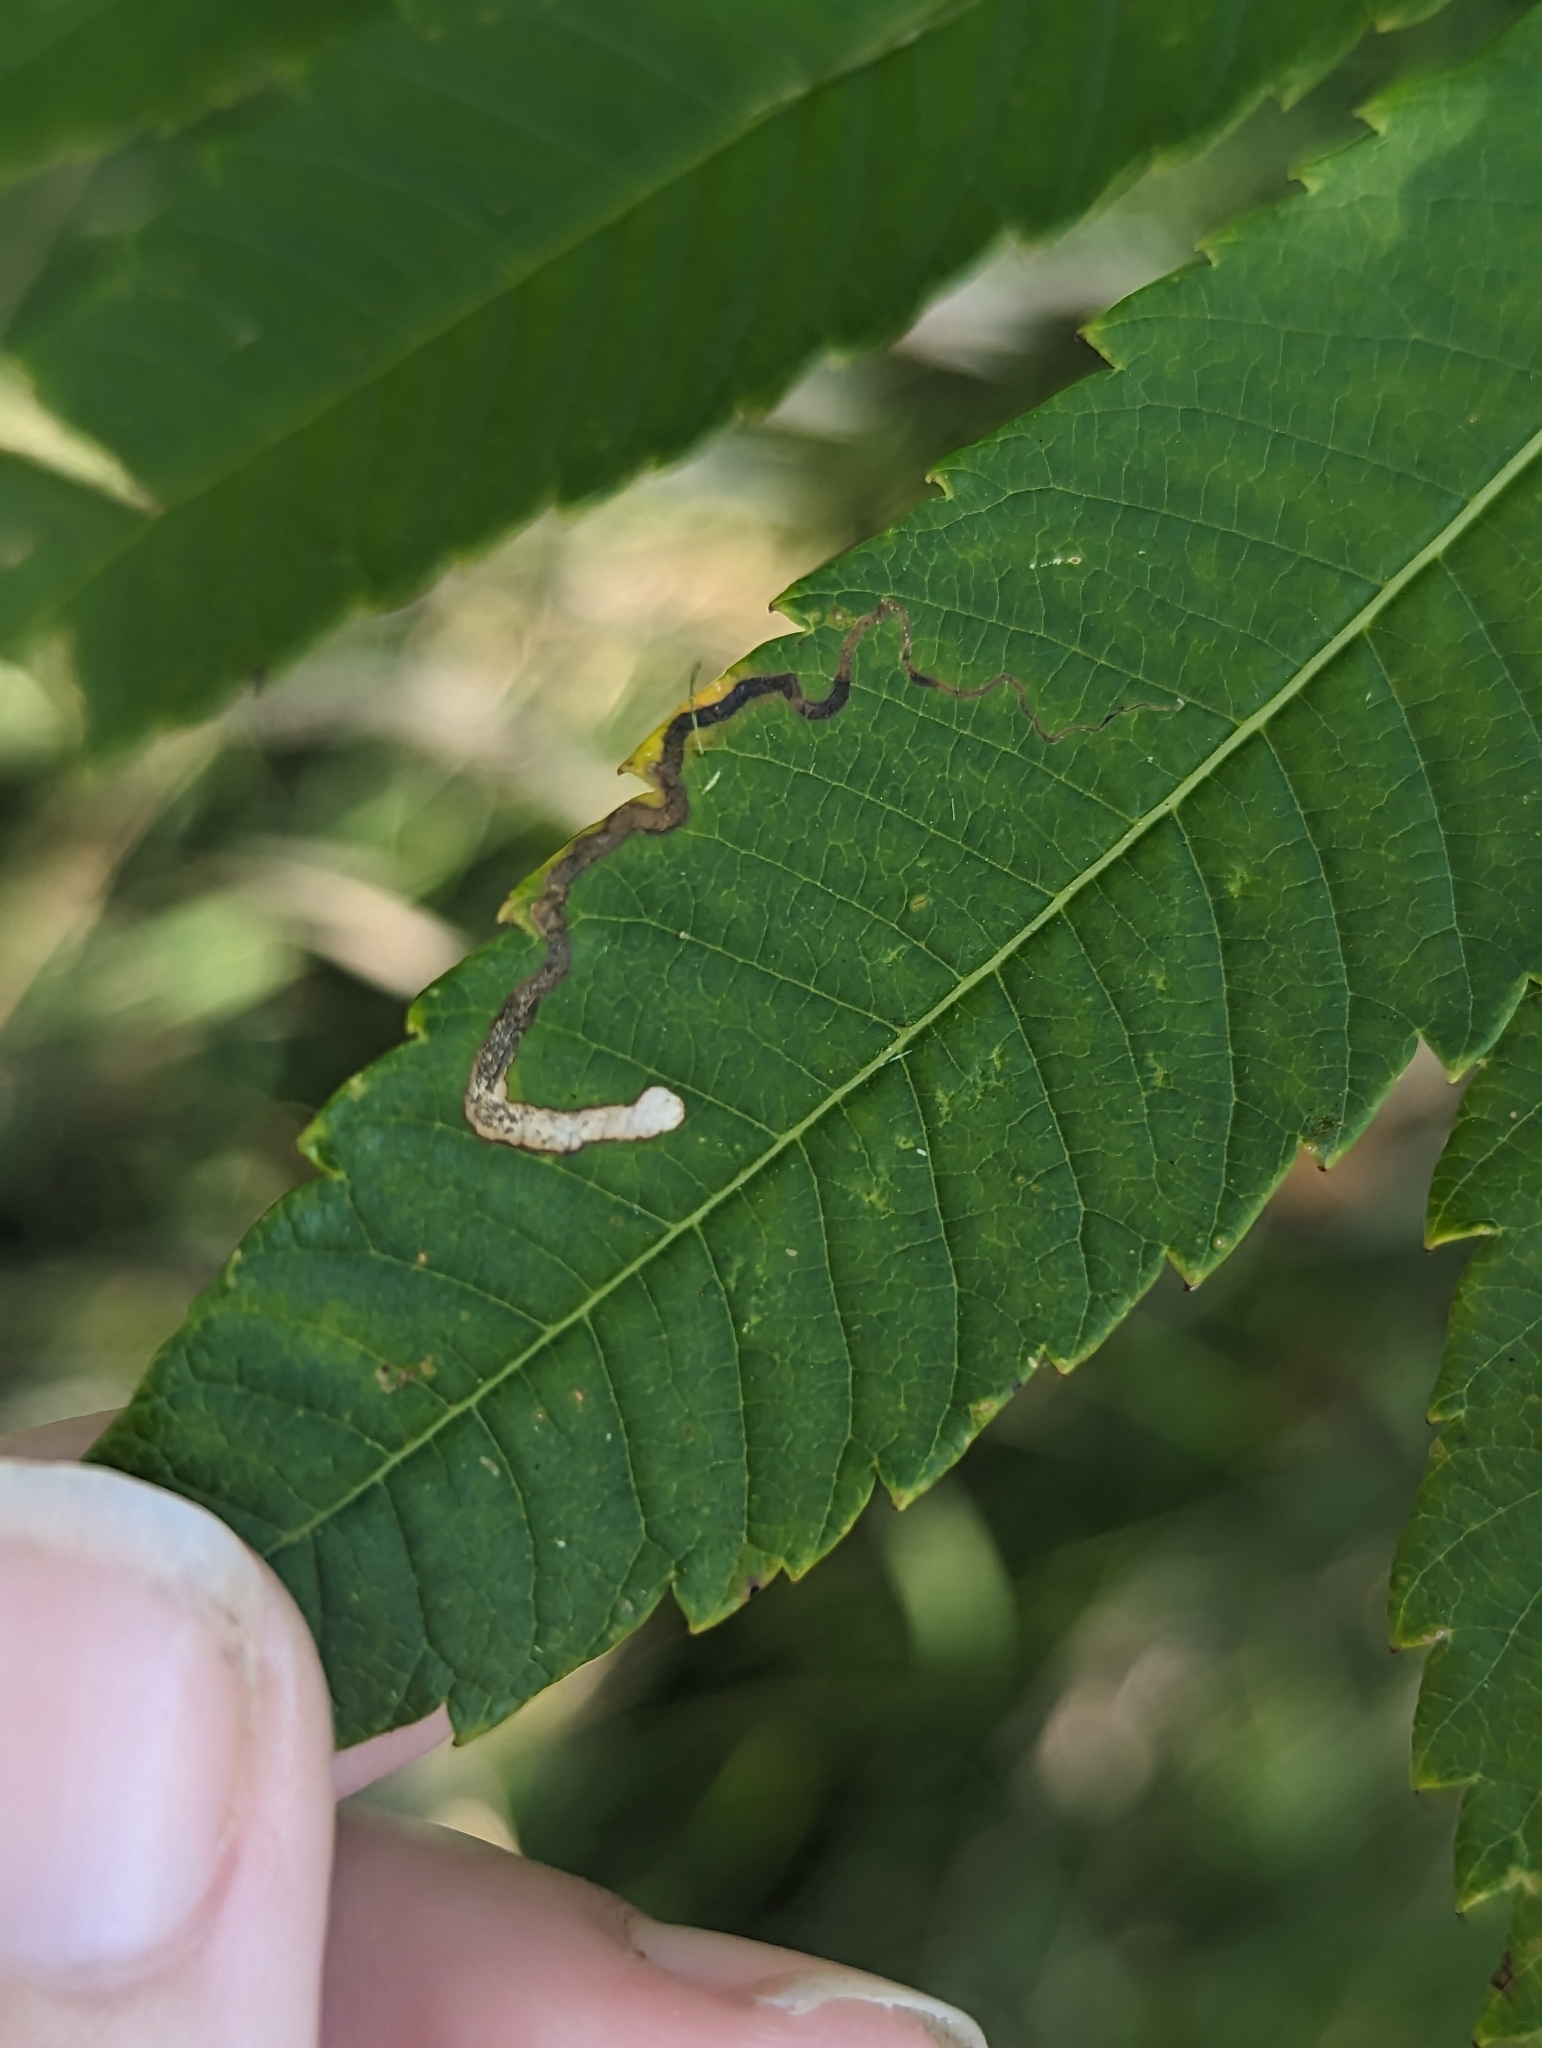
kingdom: Animalia
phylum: Arthropoda
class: Insecta
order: Lepidoptera
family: Nepticulidae
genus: Stigmella
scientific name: Stigmella intermedia
